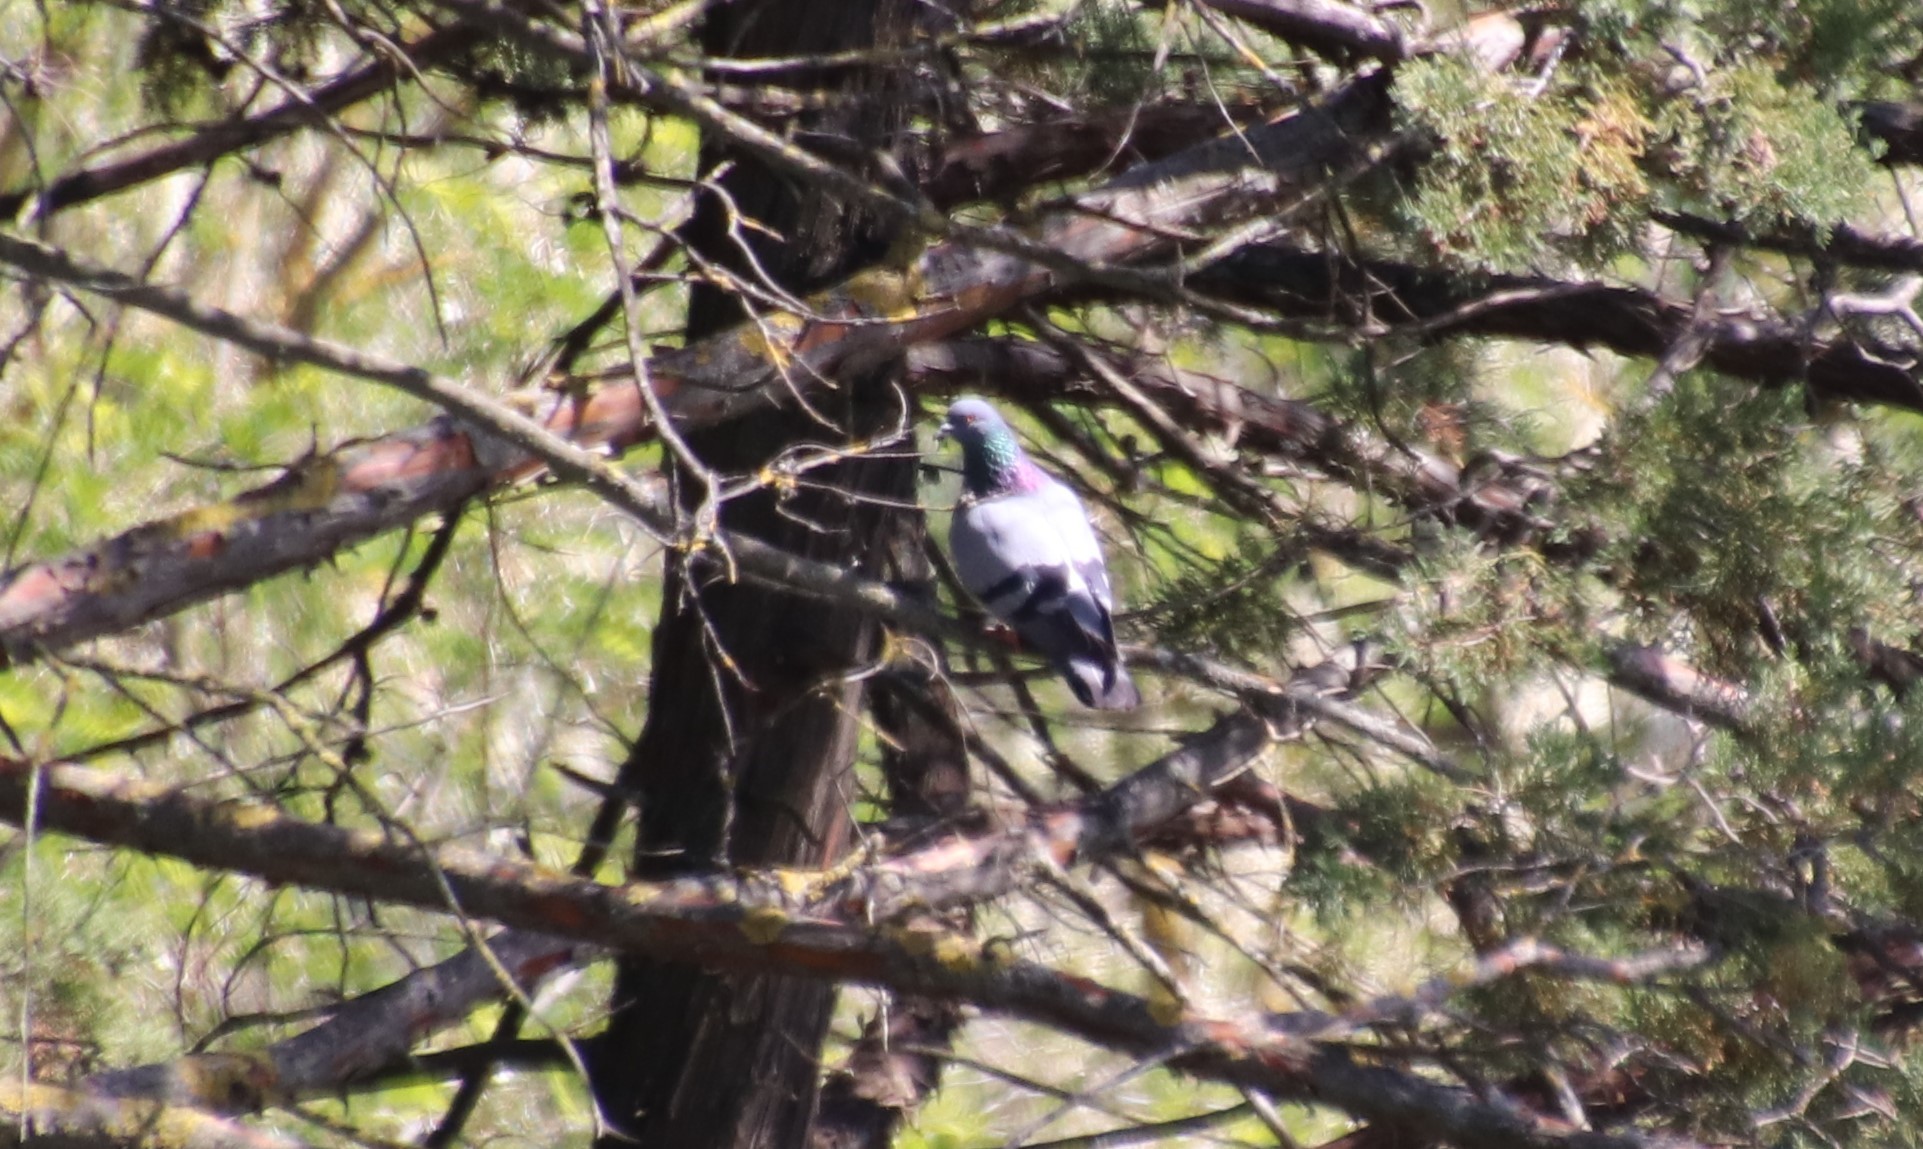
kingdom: Animalia
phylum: Chordata
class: Aves
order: Columbiformes
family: Columbidae
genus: Columba
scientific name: Columba livia
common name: Rock pigeon
